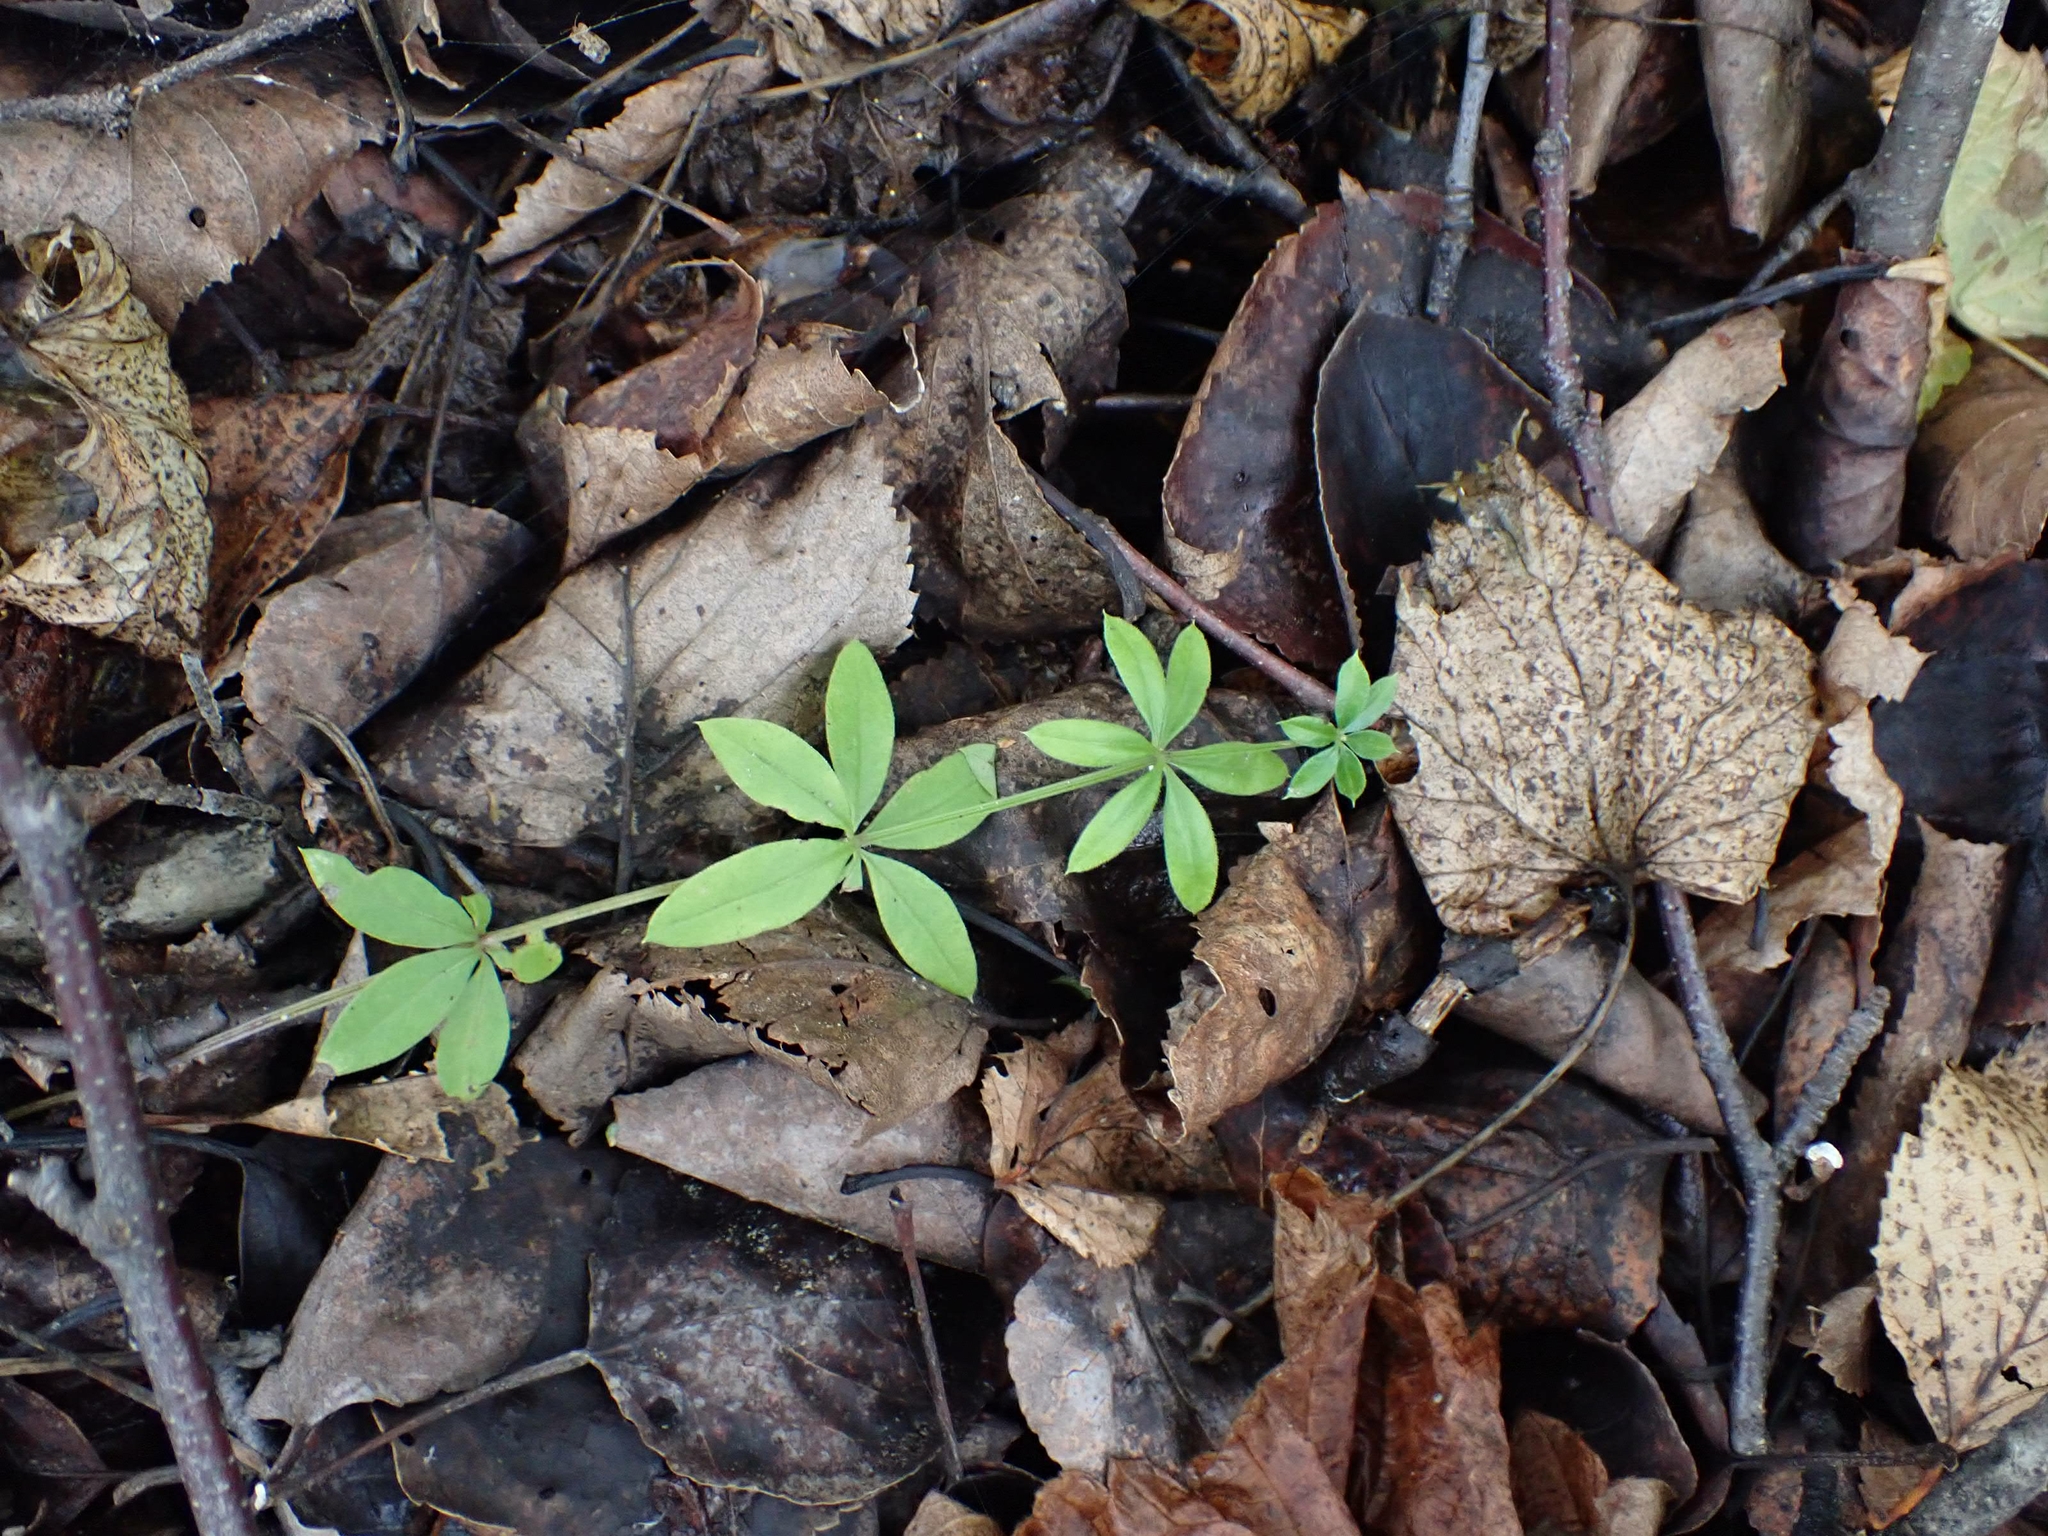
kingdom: Plantae
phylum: Tracheophyta
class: Magnoliopsida
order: Gentianales
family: Rubiaceae
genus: Galium
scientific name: Galium triflorum
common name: Fragrant bedstraw
